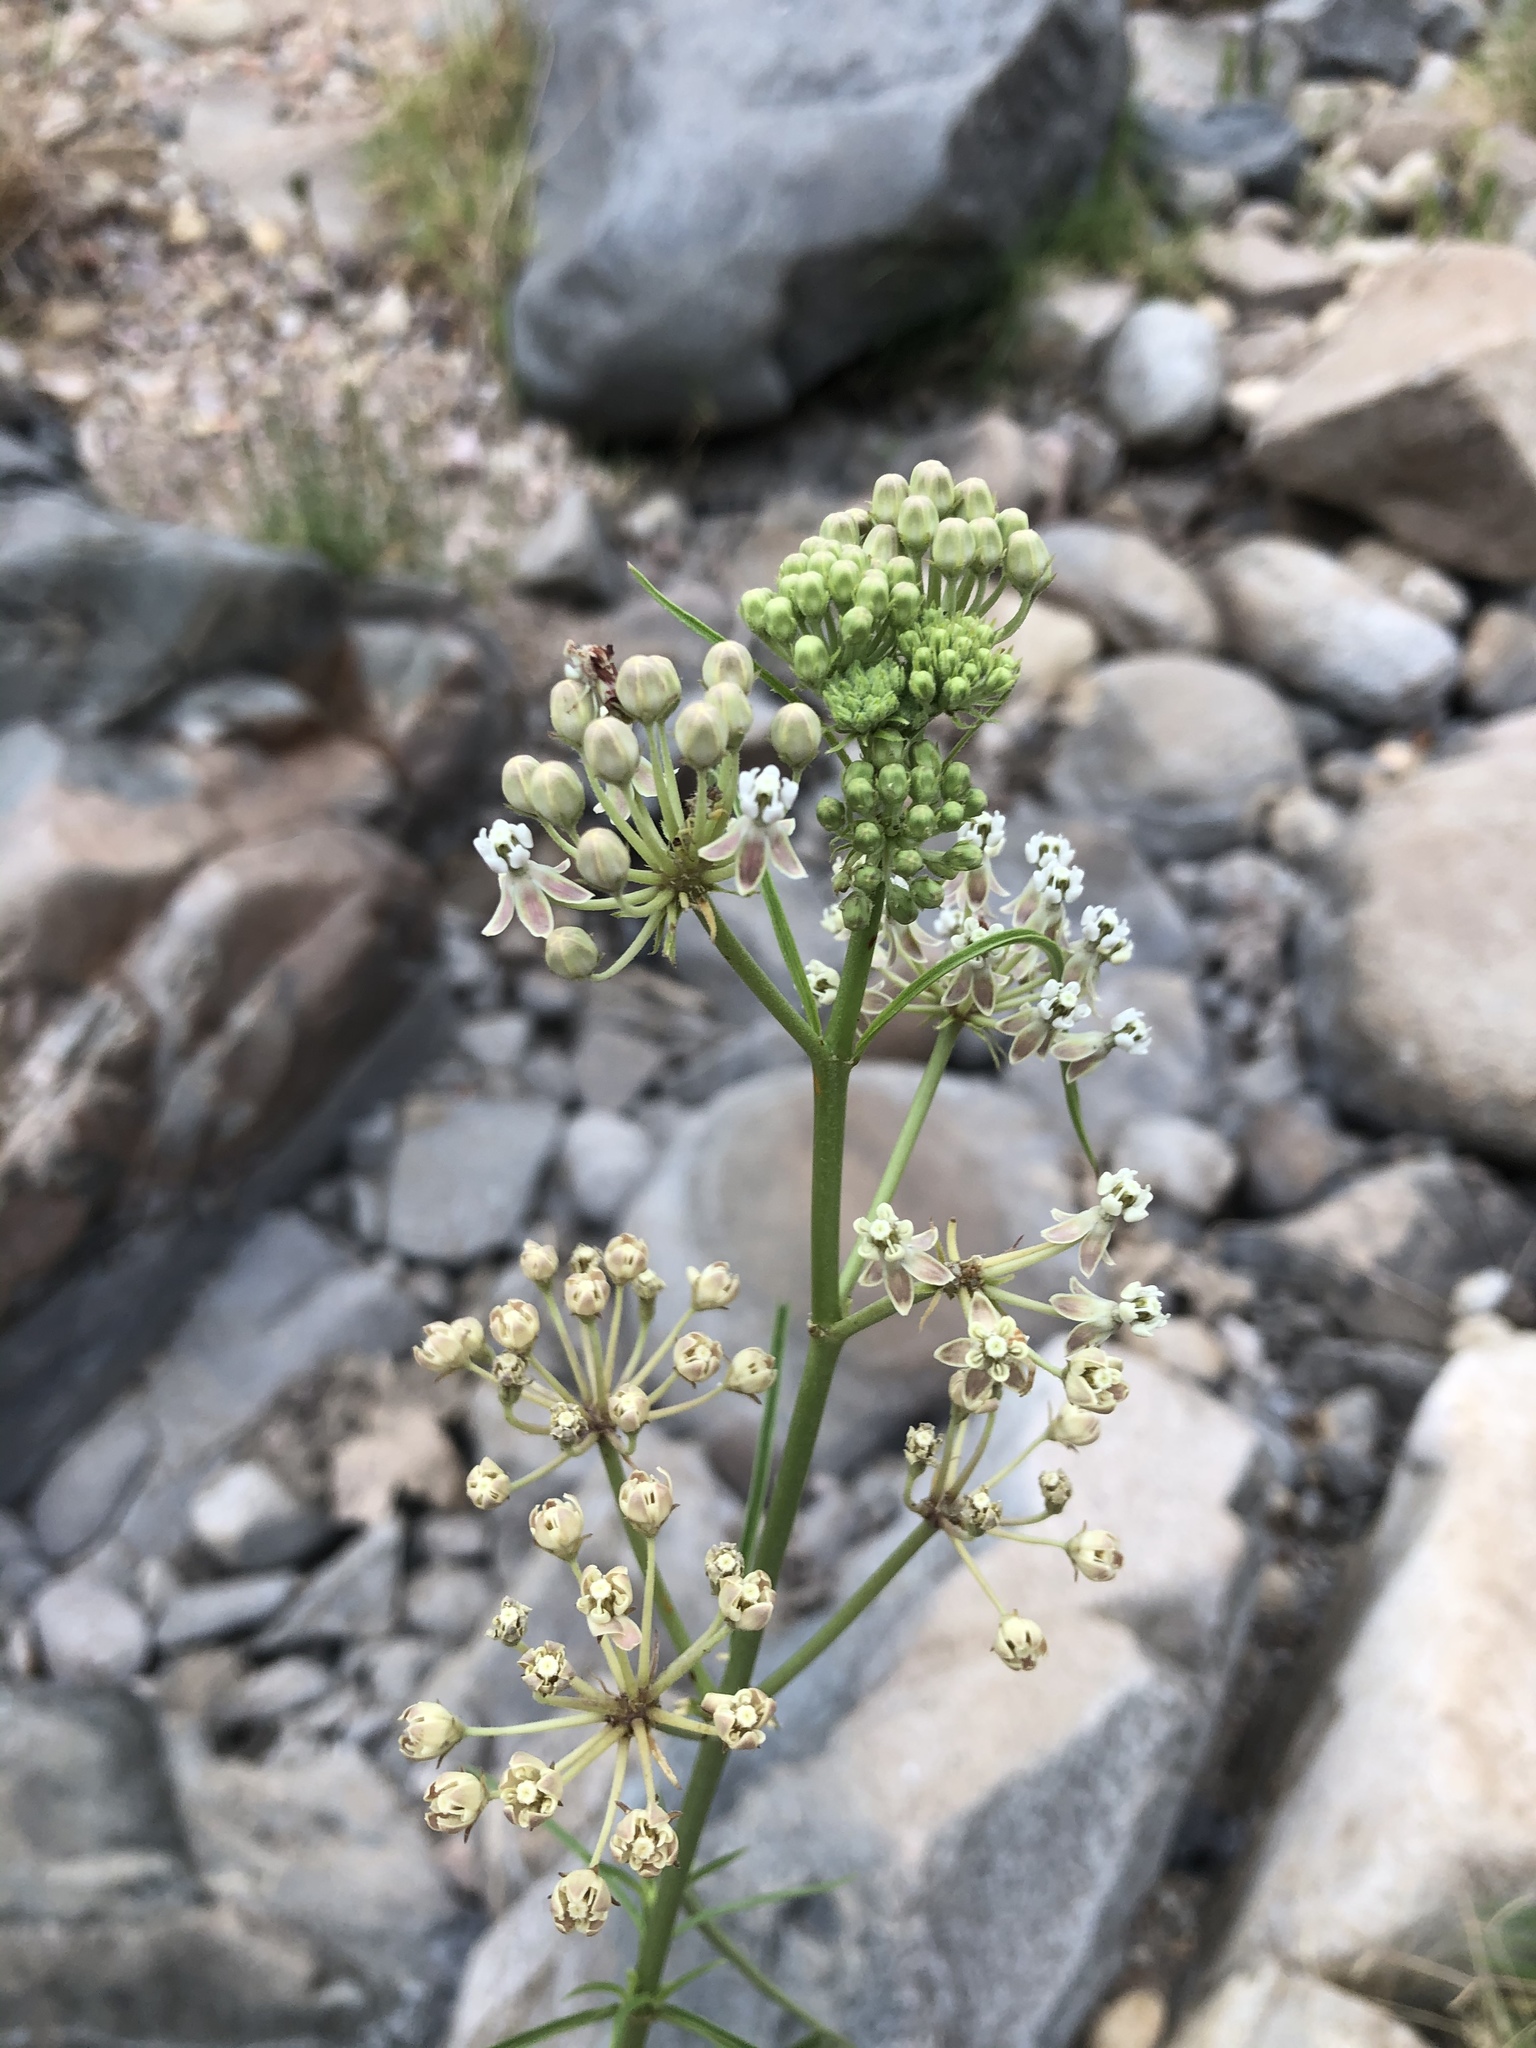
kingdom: Plantae
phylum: Tracheophyta
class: Magnoliopsida
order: Gentianales
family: Apocynaceae
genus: Asclepias
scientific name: Asclepias fascicularis
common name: Mexican milkweed
